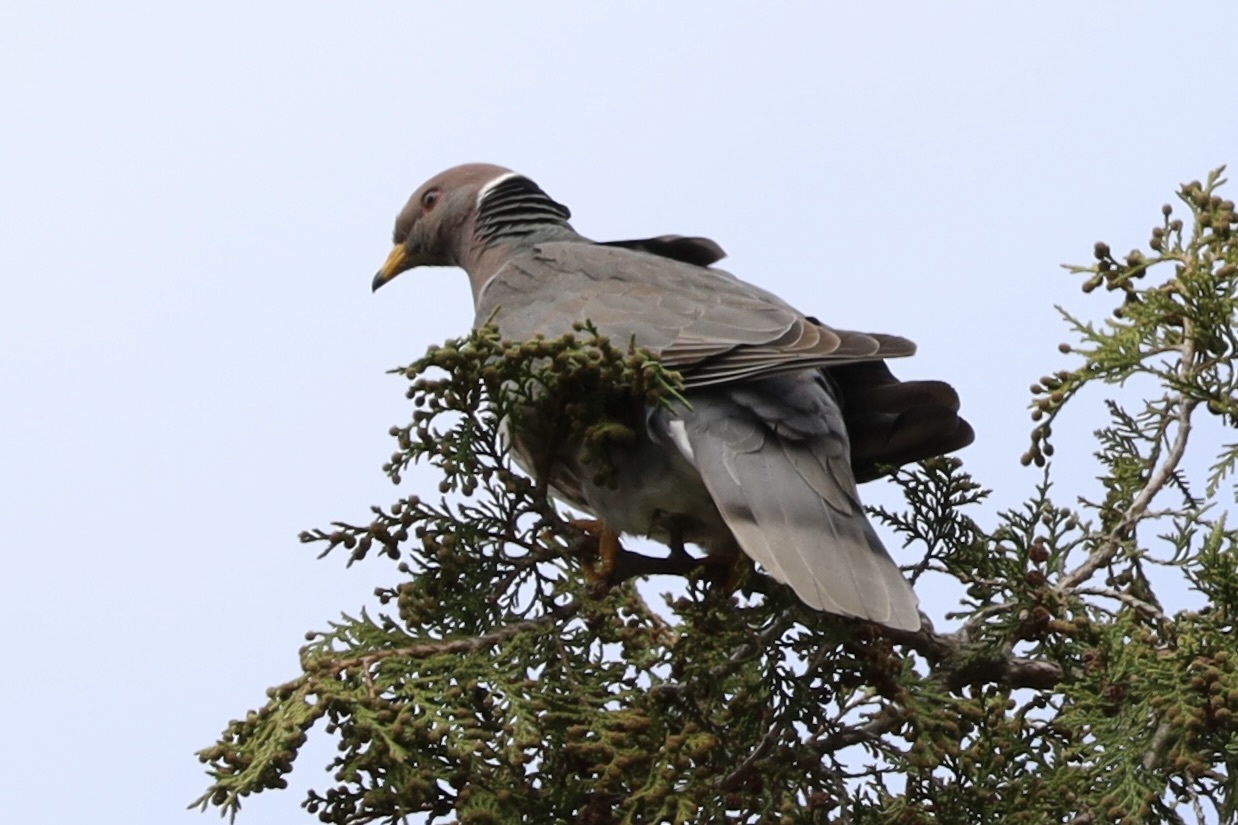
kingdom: Animalia
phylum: Chordata
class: Aves
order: Columbiformes
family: Columbidae
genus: Patagioenas
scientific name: Patagioenas fasciata
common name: Band-tailed pigeon
